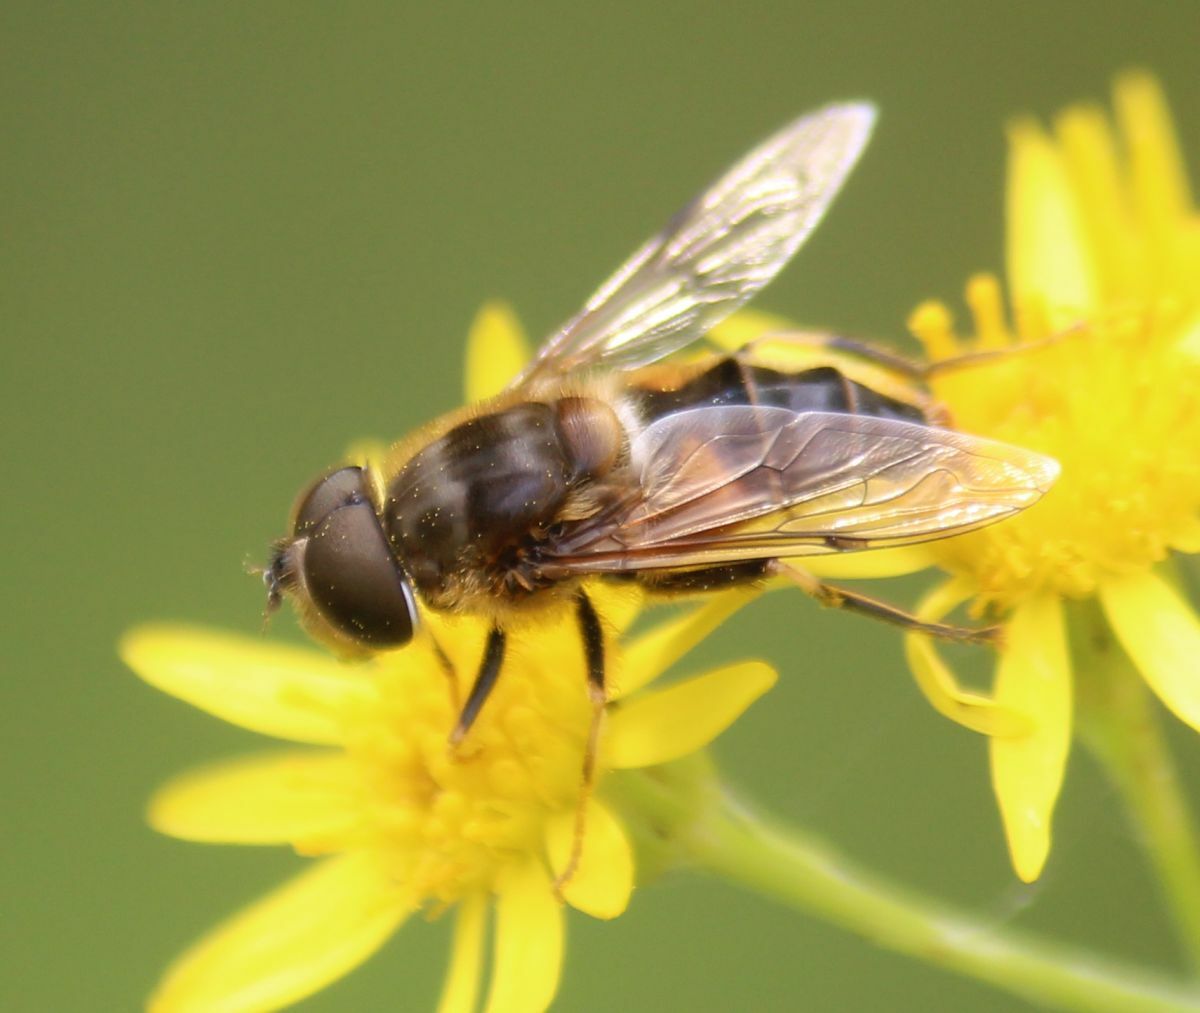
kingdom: Animalia
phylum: Arthropoda
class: Insecta
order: Diptera
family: Syrphidae
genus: Eristalis
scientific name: Eristalis pertinax
